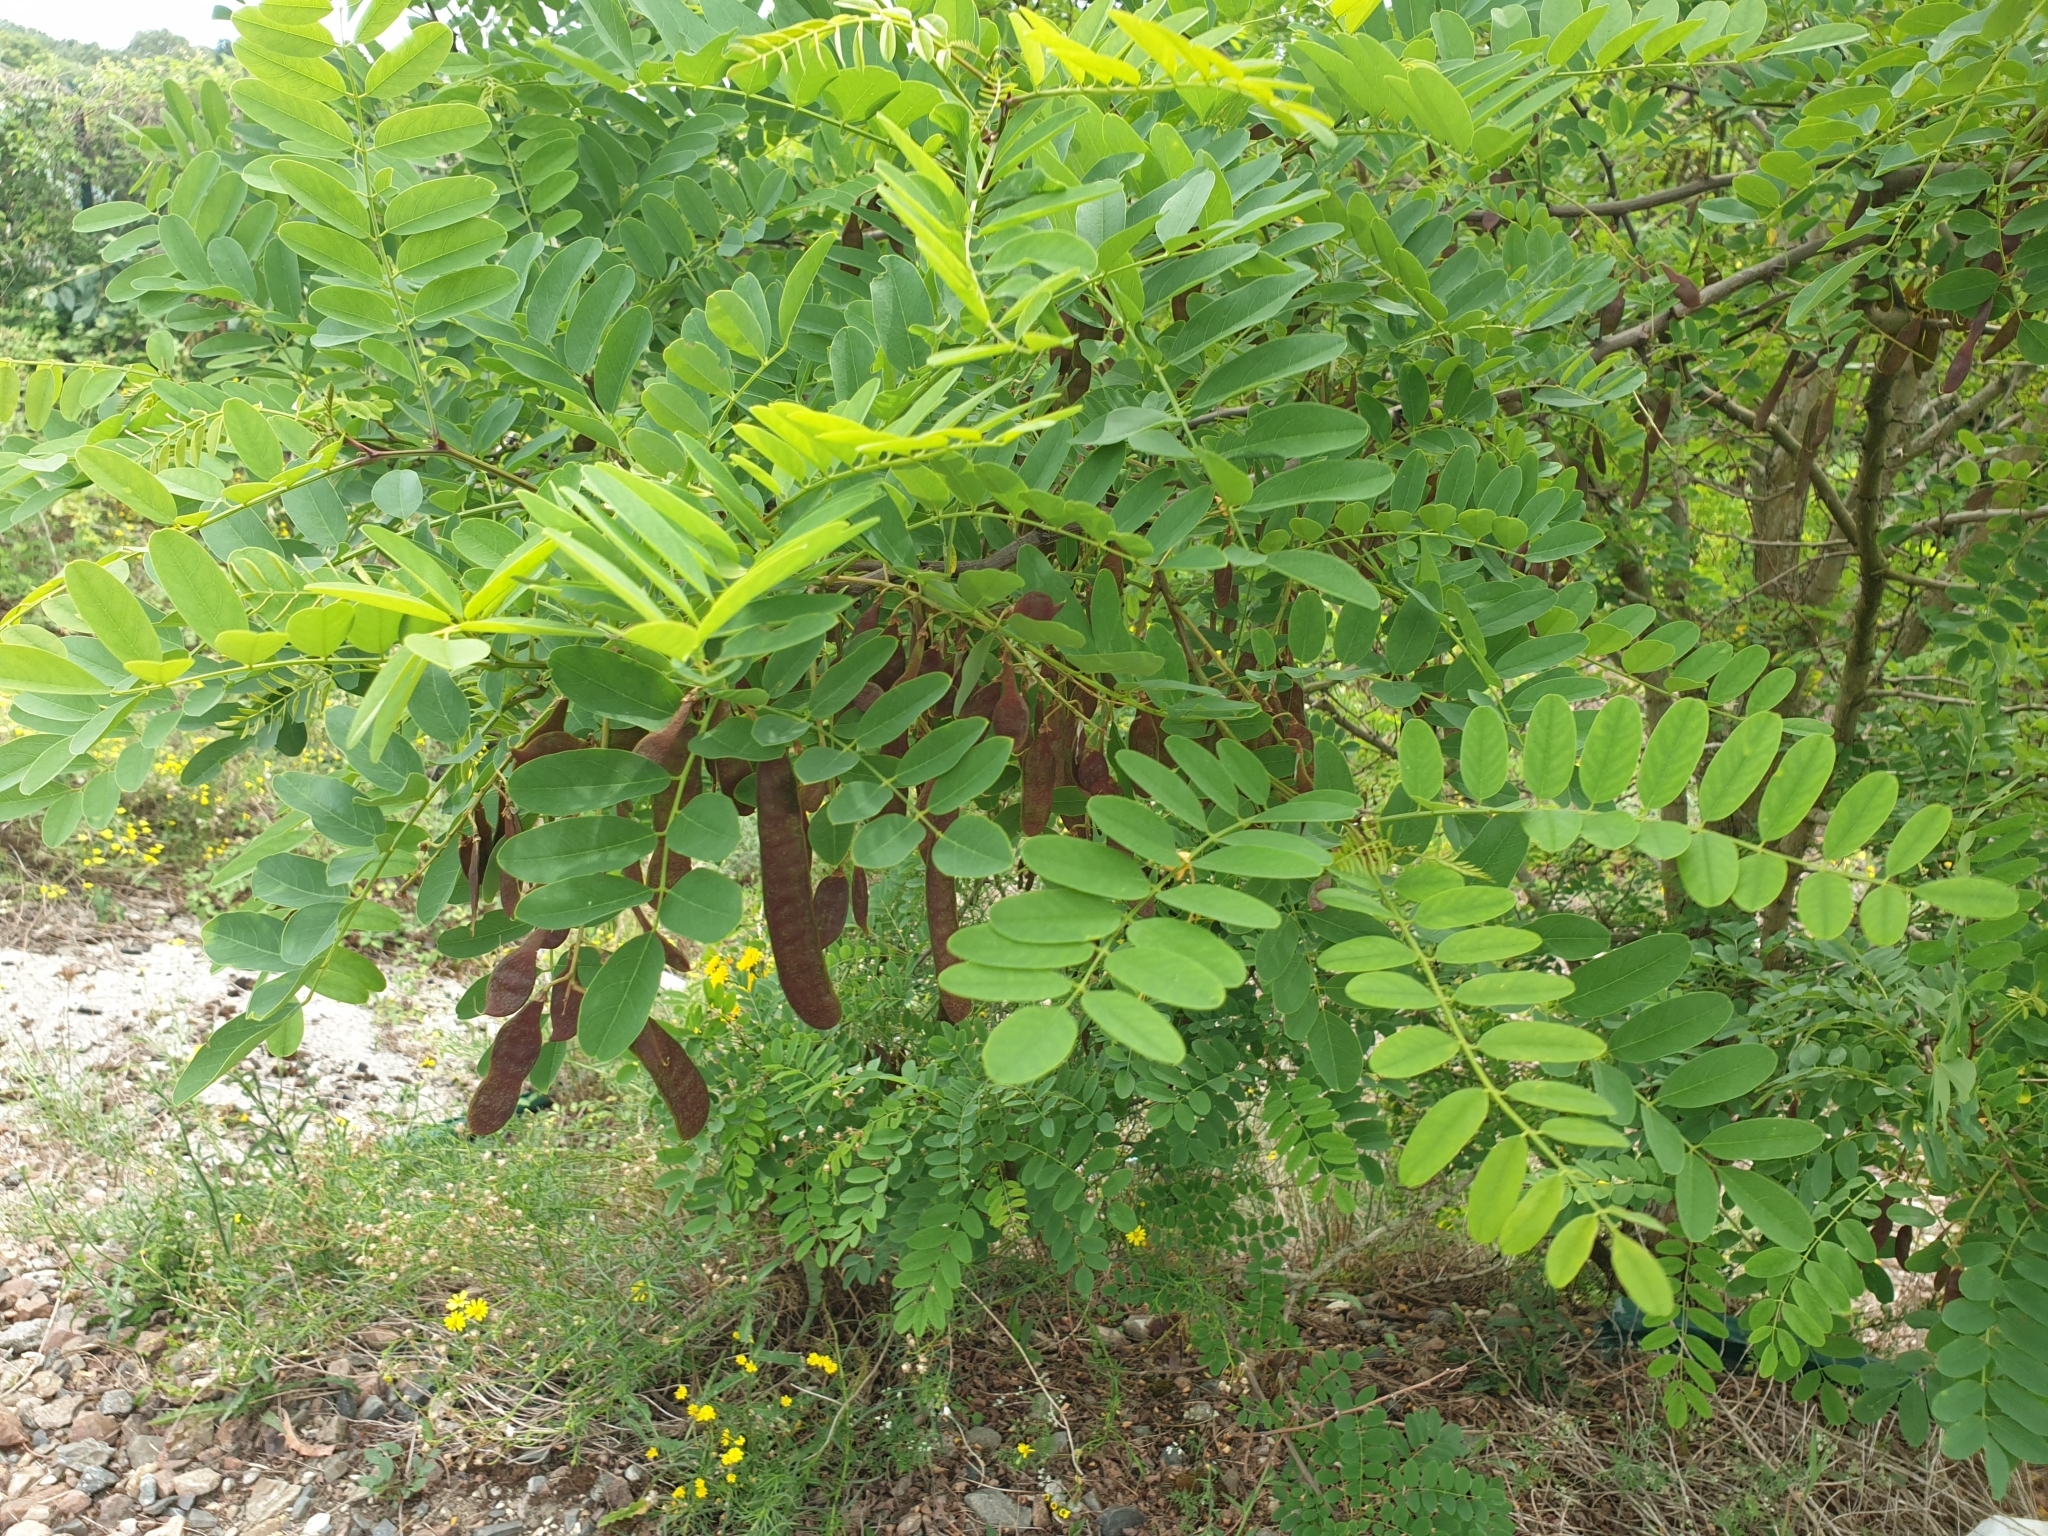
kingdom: Plantae
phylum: Tracheophyta
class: Magnoliopsida
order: Fabales
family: Fabaceae
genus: Robinia
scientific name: Robinia pseudoacacia
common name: Black locust
